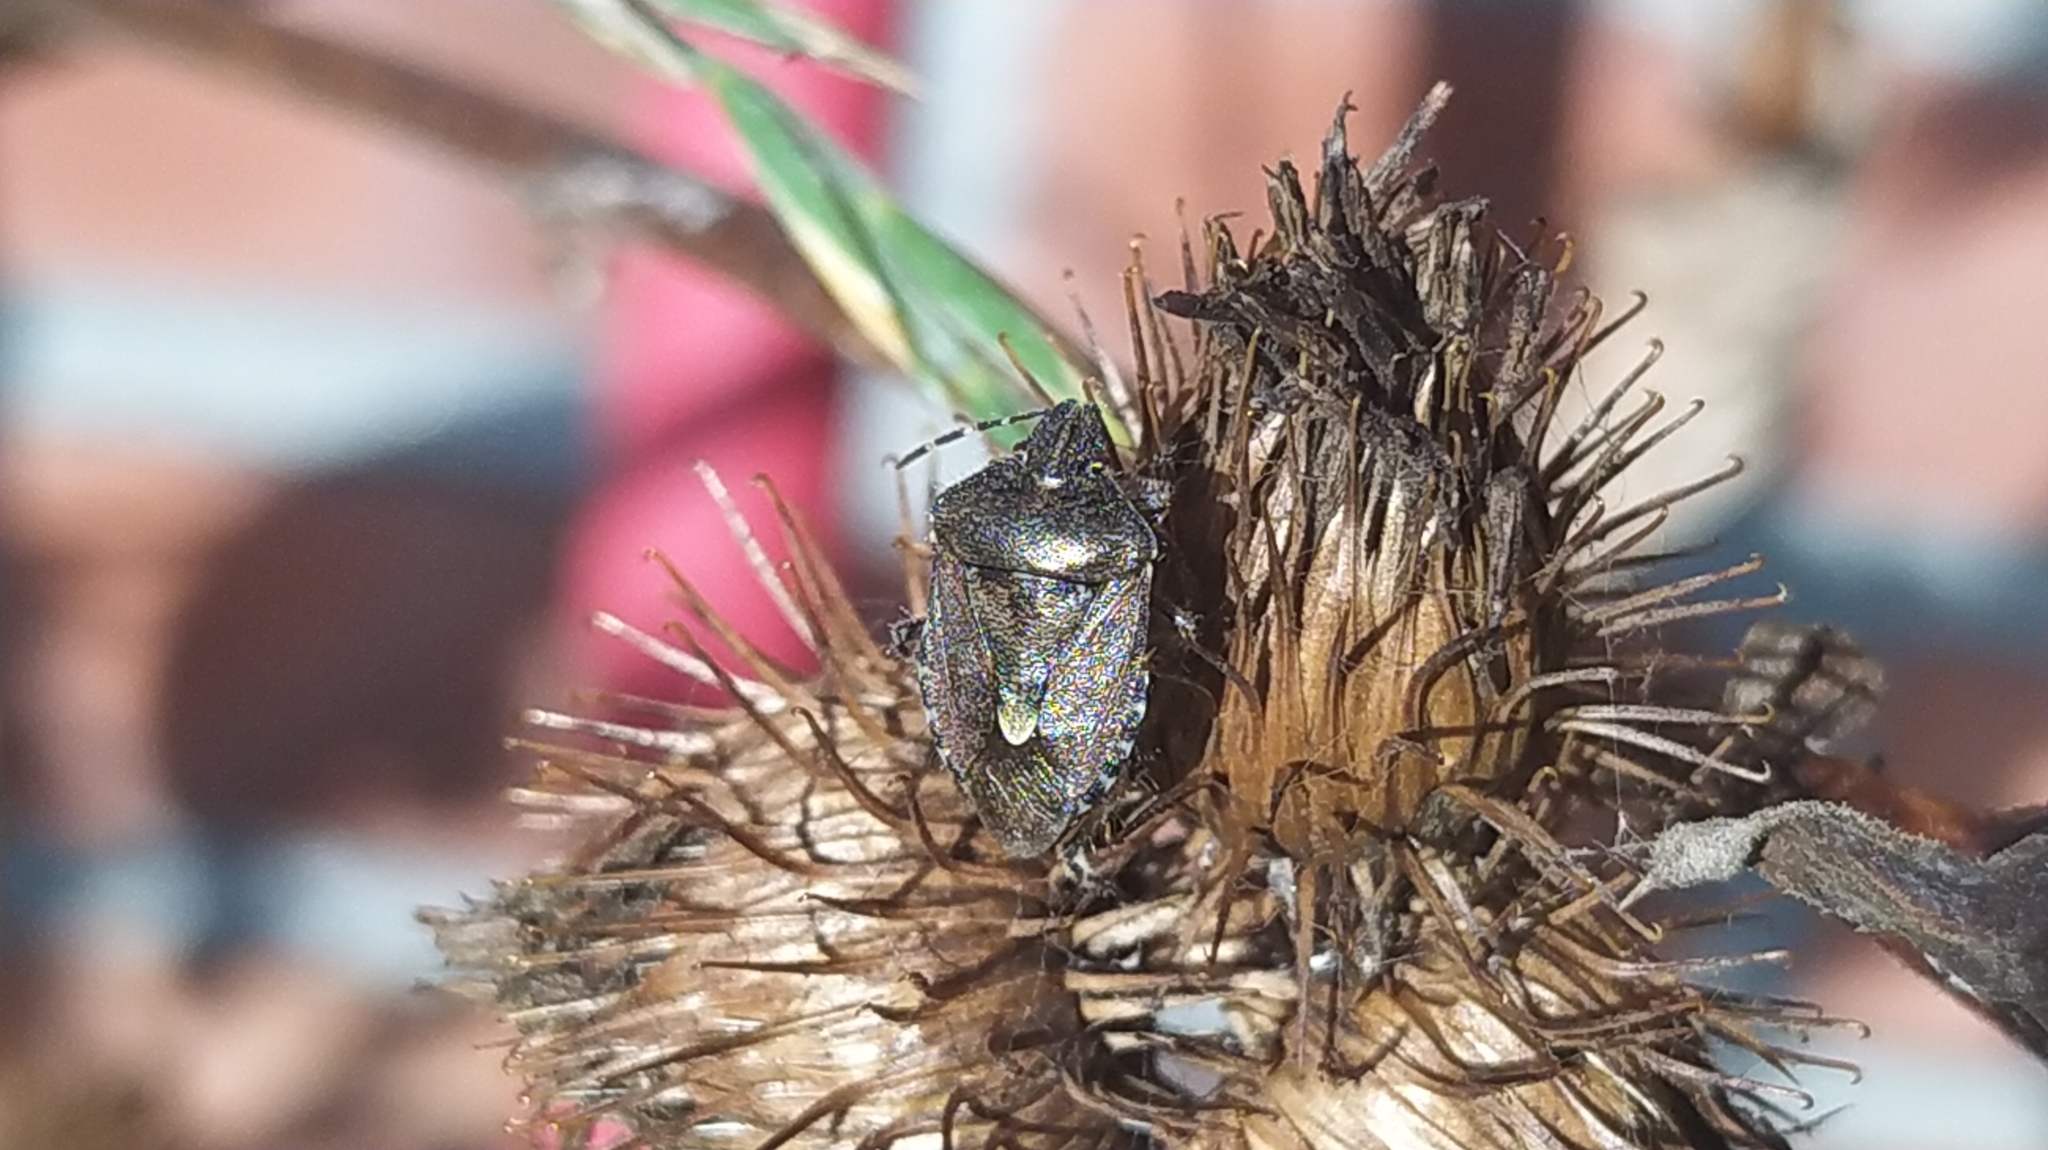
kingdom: Animalia
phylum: Arthropoda
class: Insecta
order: Hemiptera
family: Pentatomidae
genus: Dolycoris
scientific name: Dolycoris baccarum
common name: Sloe bug
